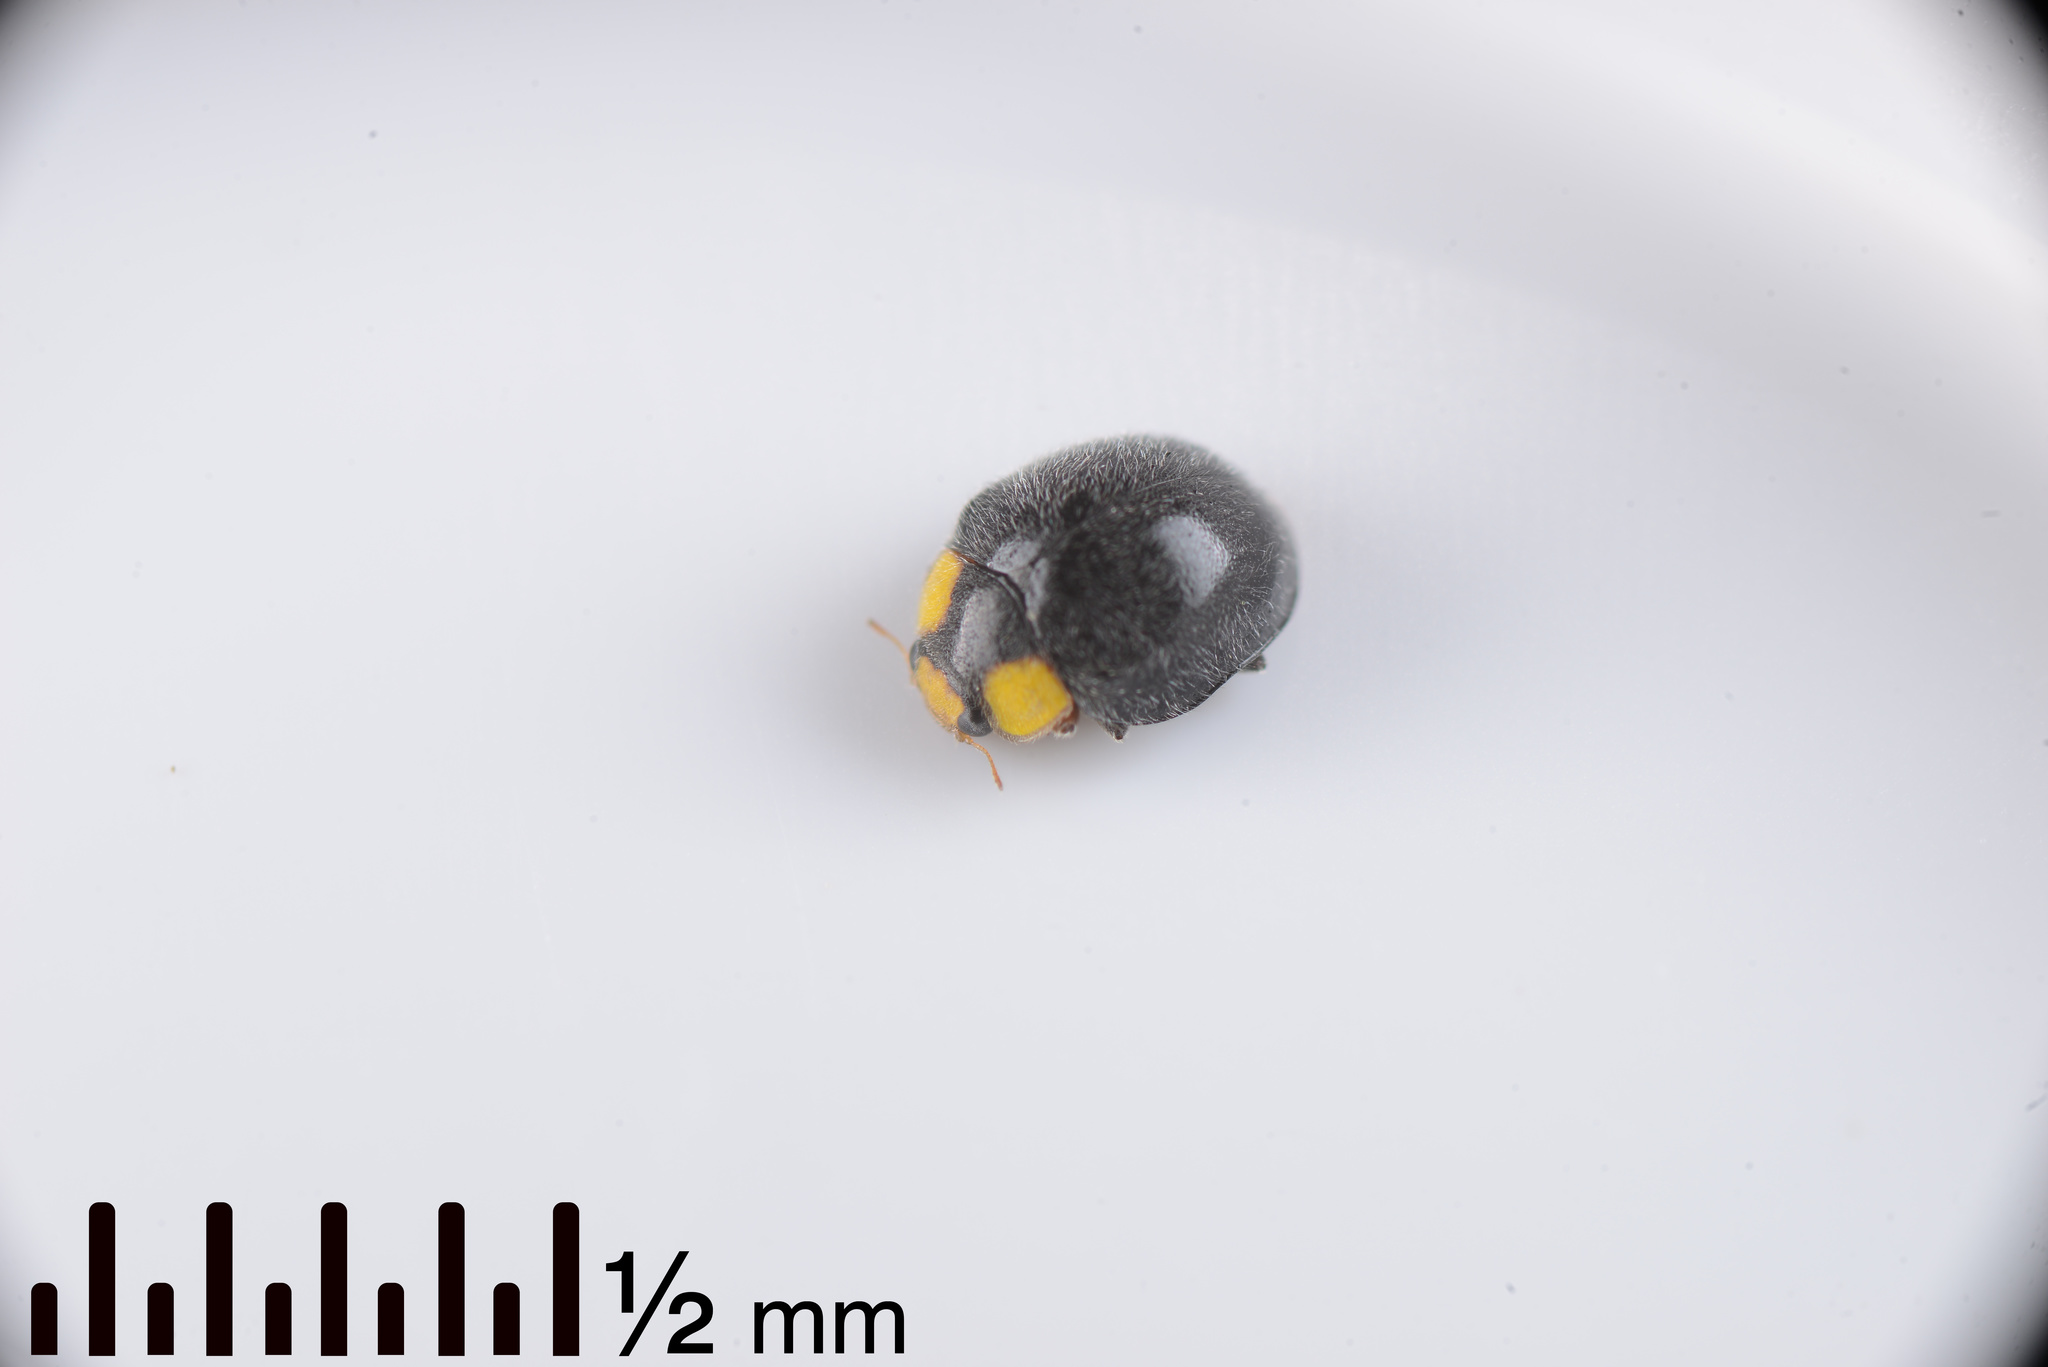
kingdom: Animalia
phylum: Arthropoda
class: Insecta
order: Coleoptera
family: Coccinellidae
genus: Scymnodes
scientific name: Scymnodes lividigaster
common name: Yellowshouldered lady beetle
